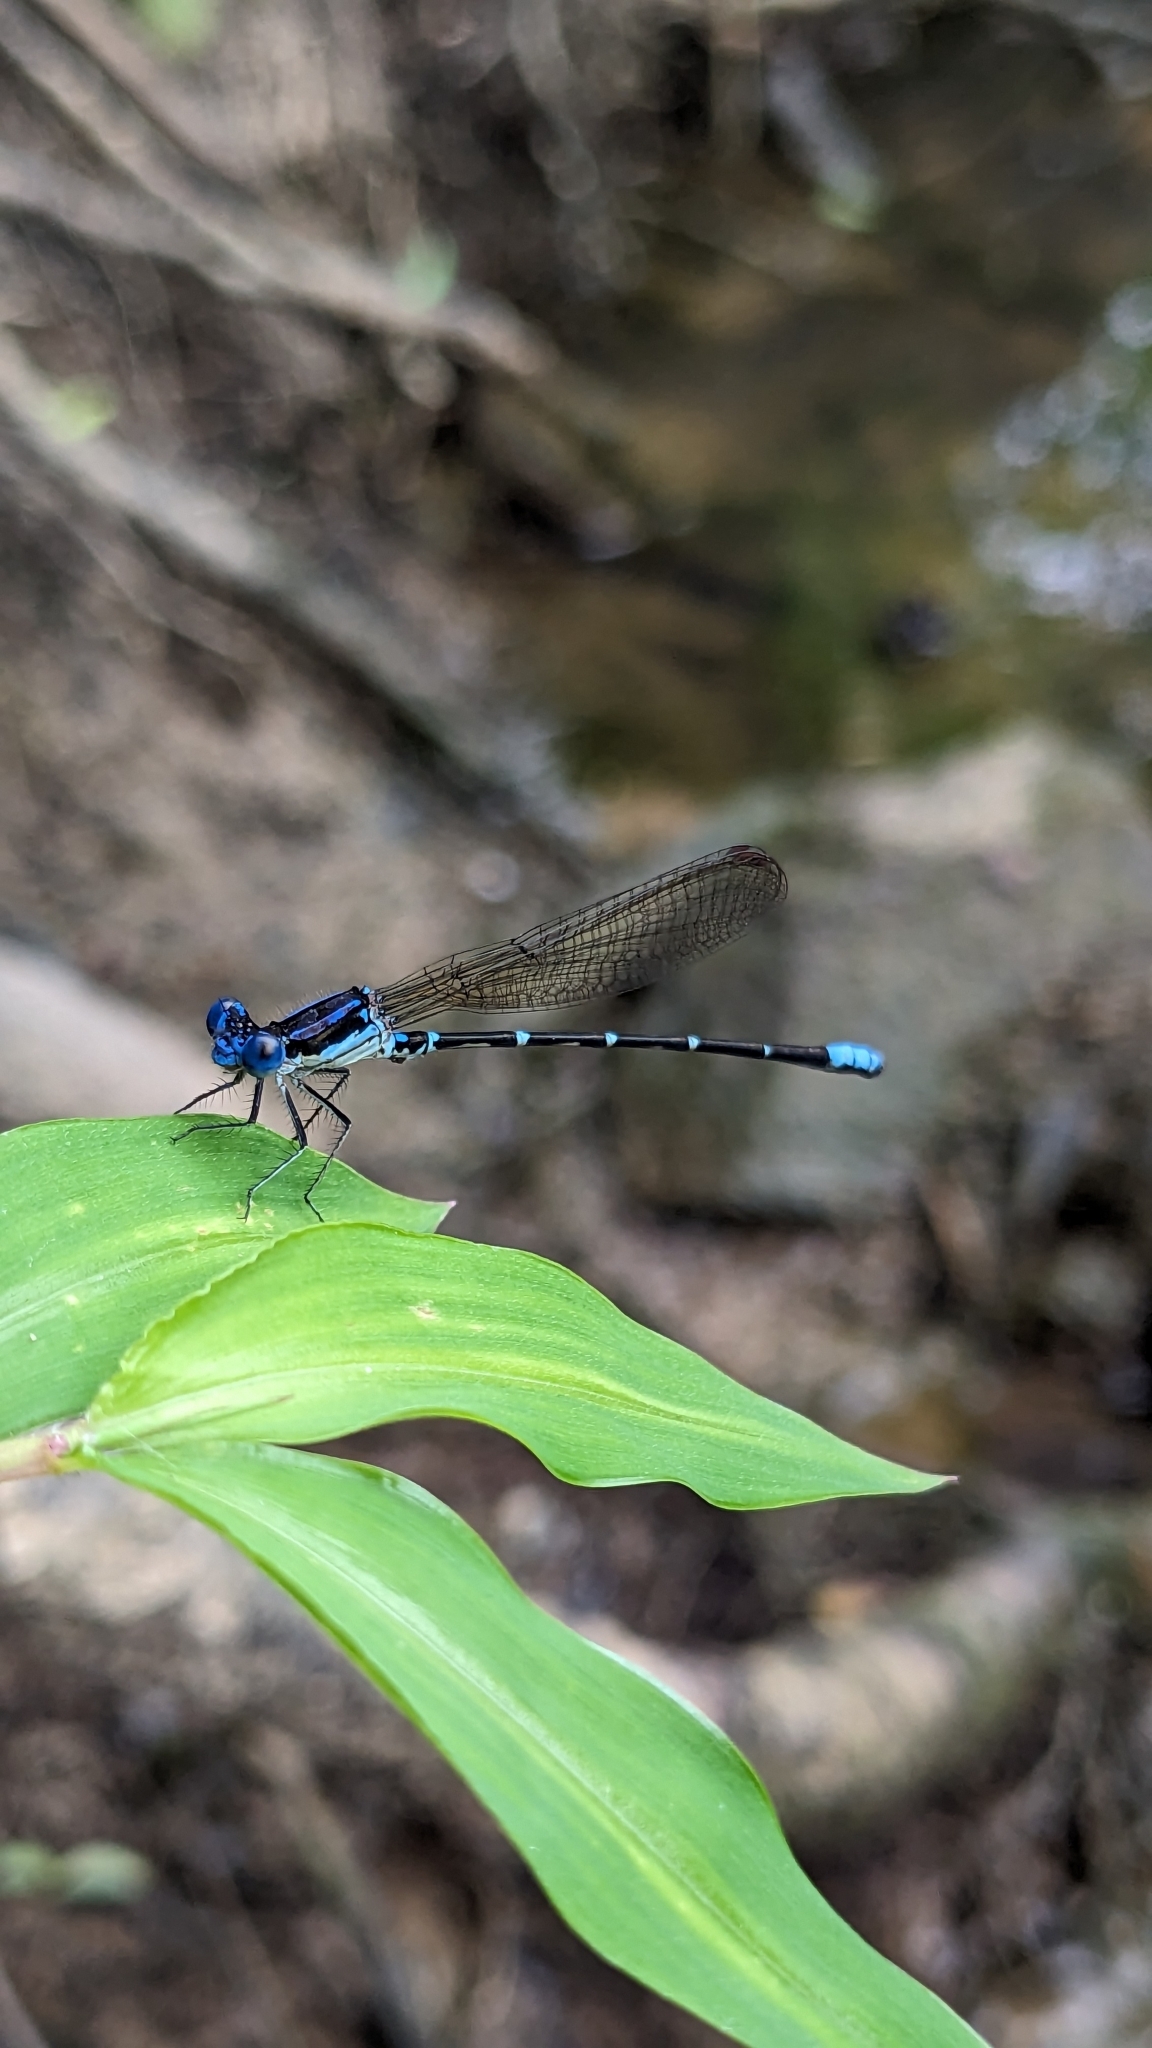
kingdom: Animalia
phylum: Arthropoda
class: Insecta
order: Odonata
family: Coenagrionidae
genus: Argia
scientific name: Argia sedula
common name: Blue-ringed dancer
